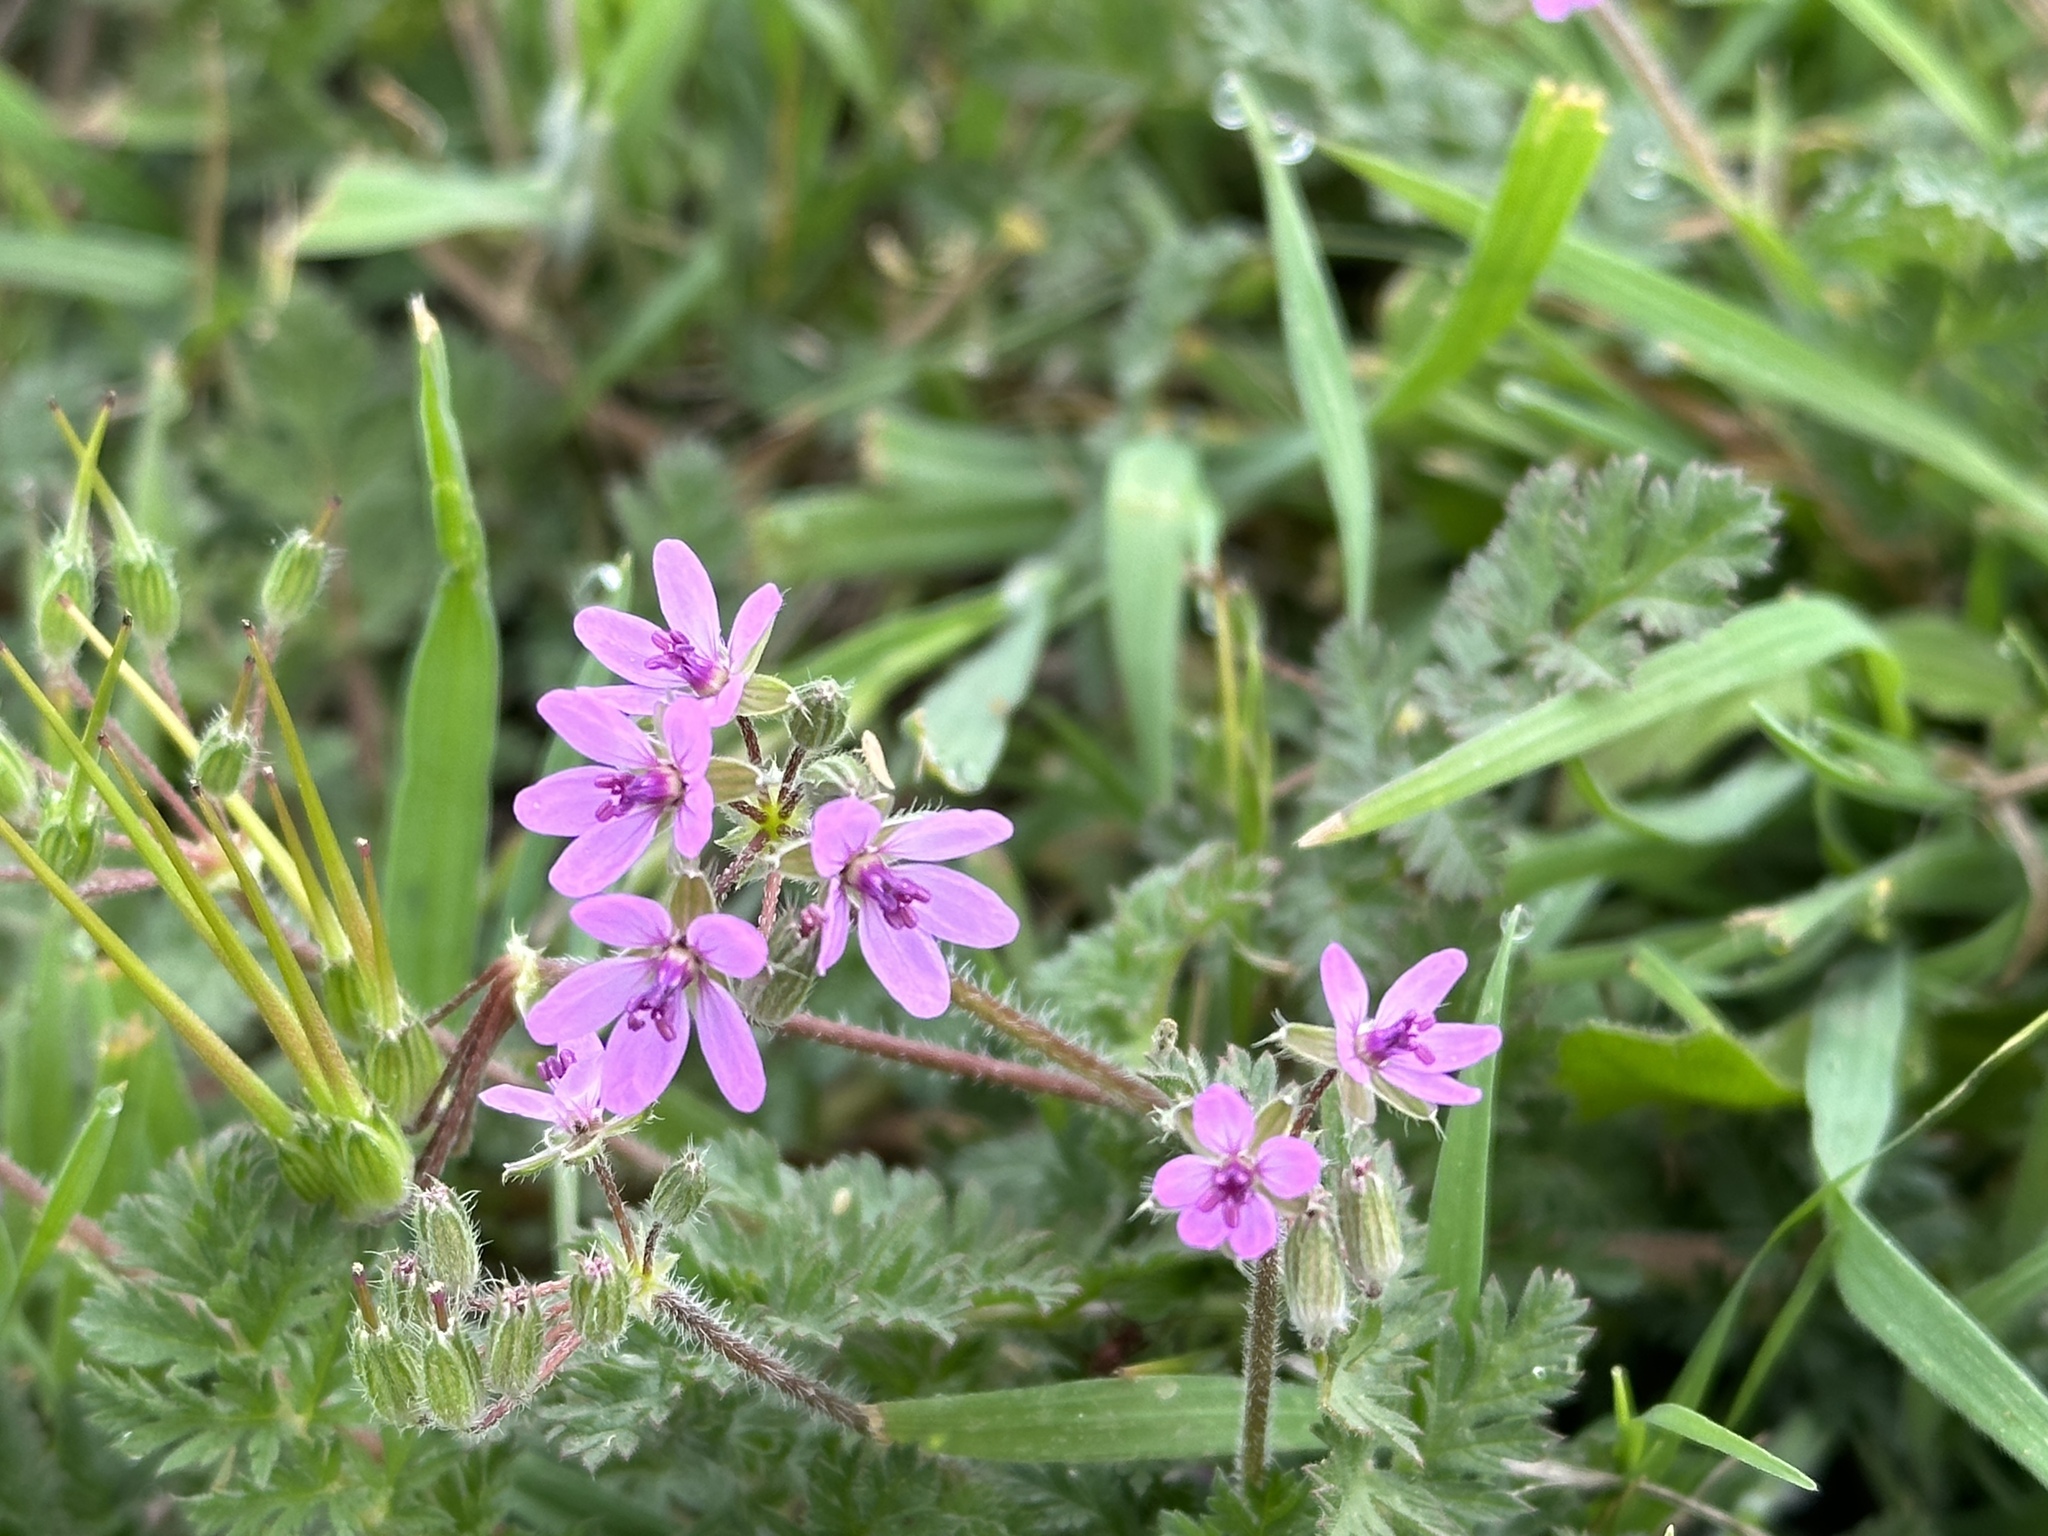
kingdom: Plantae
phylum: Tracheophyta
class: Magnoliopsida
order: Geraniales
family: Geraniaceae
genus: Erodium
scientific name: Erodium cicutarium
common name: Common stork's-bill
